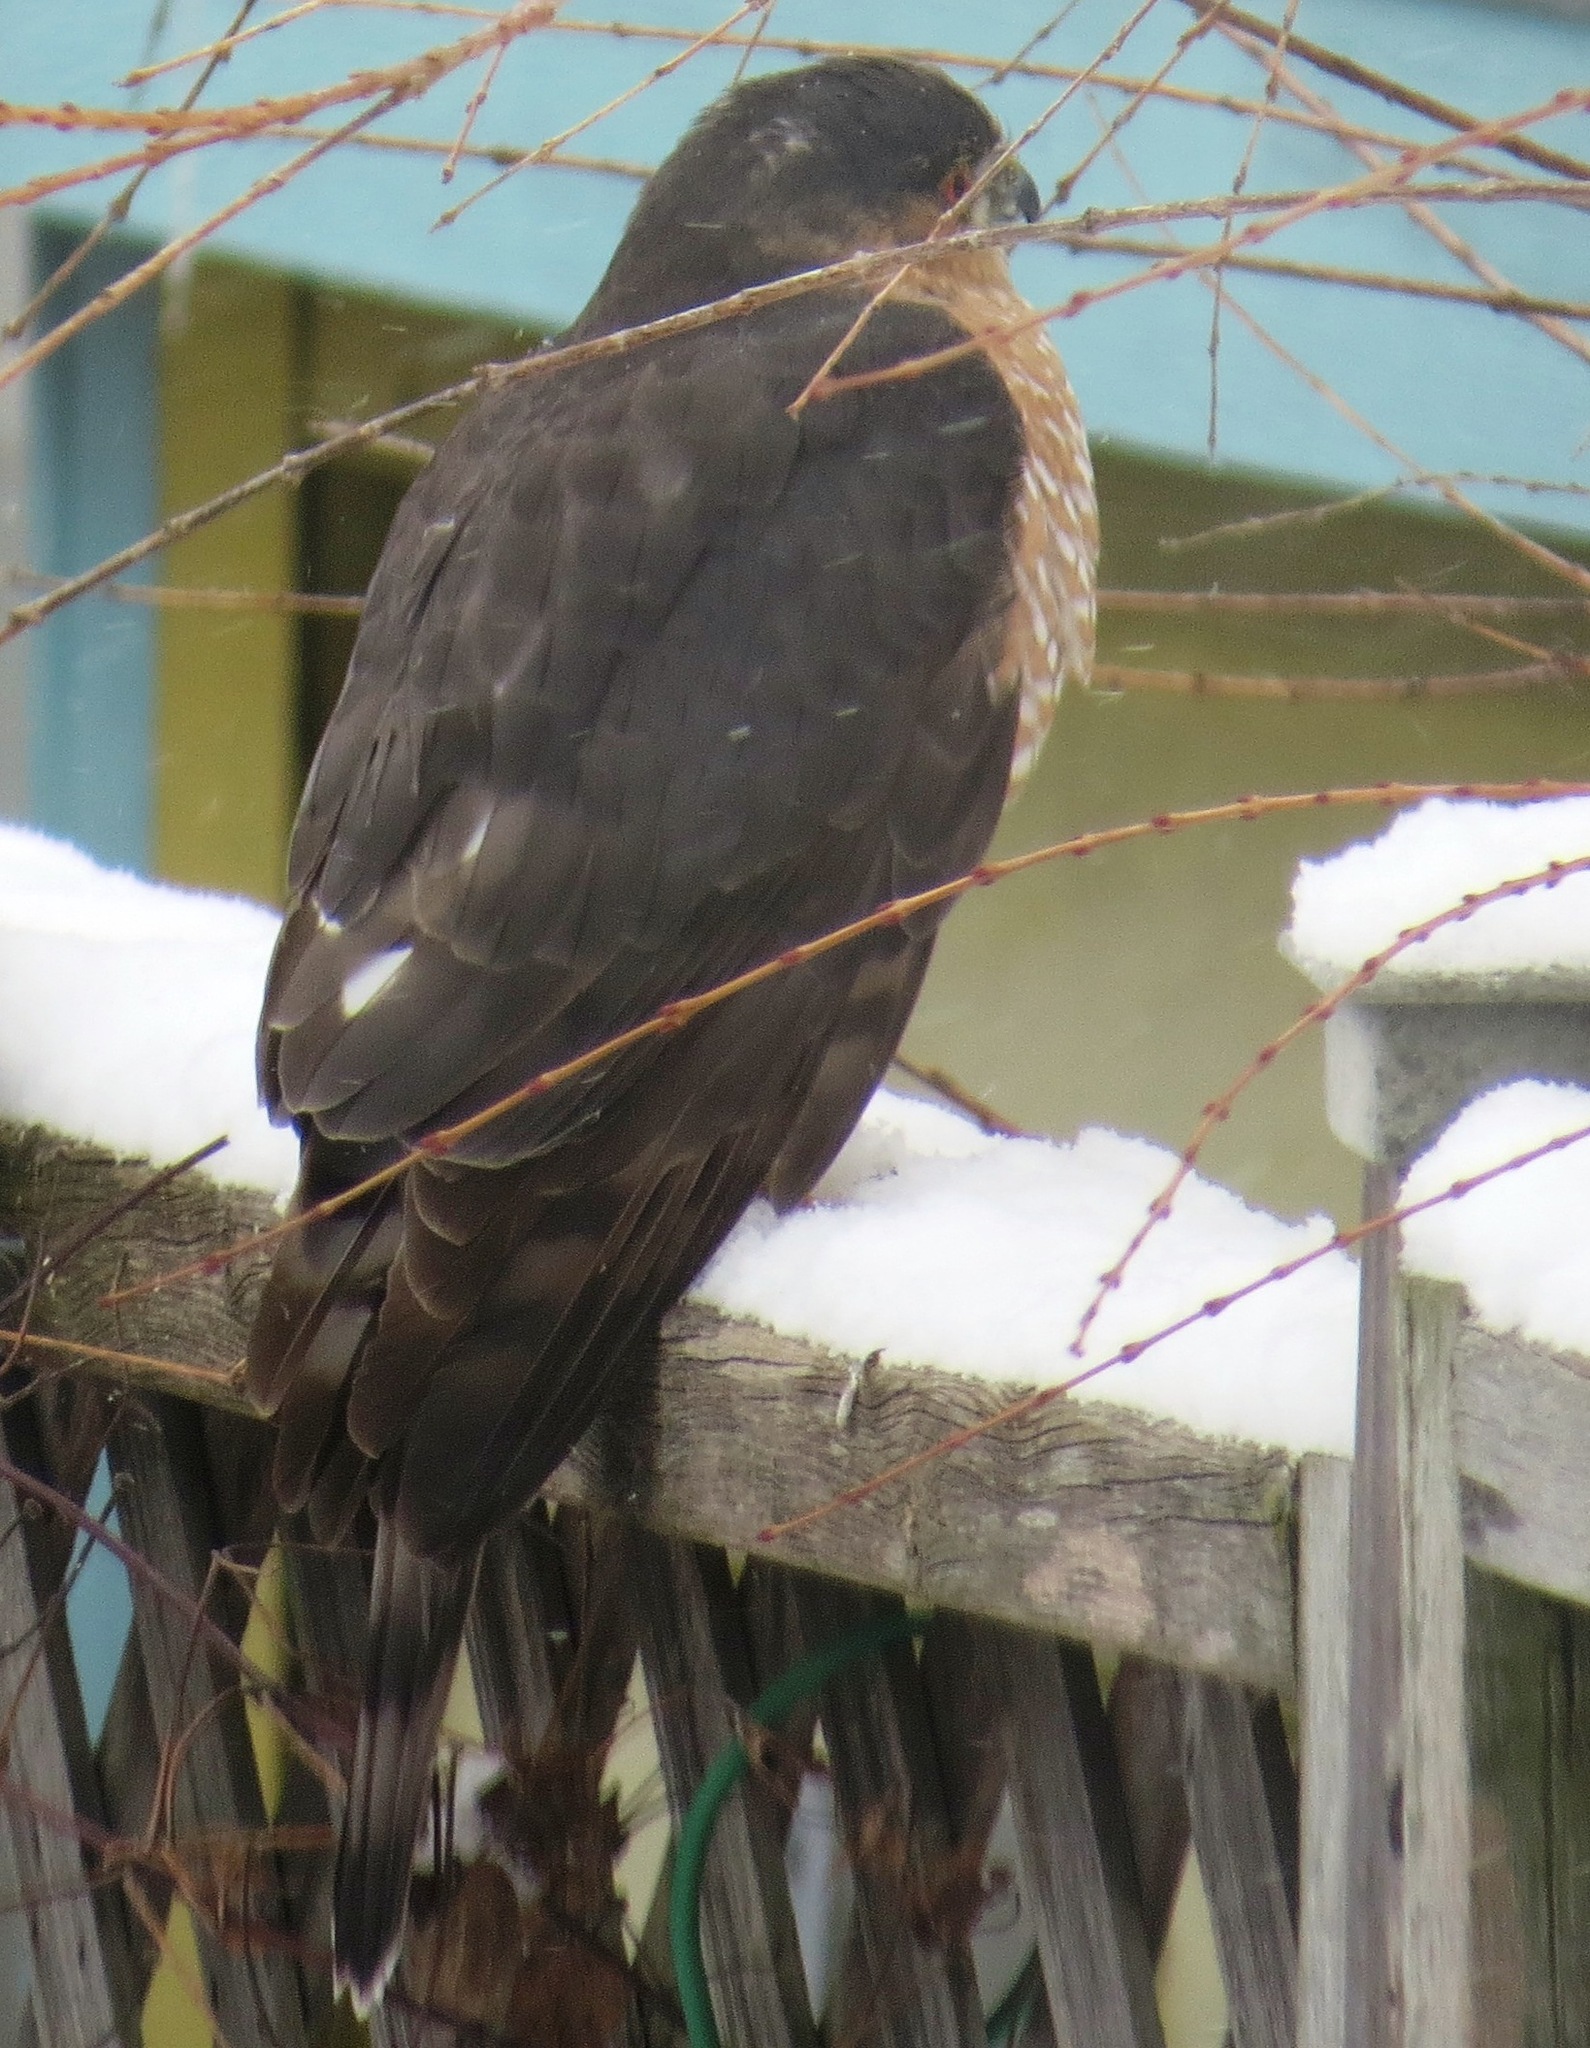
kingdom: Animalia
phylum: Chordata
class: Aves
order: Accipitriformes
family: Accipitridae
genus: Accipiter
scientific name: Accipiter striatus
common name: Sharp-shinned hawk
